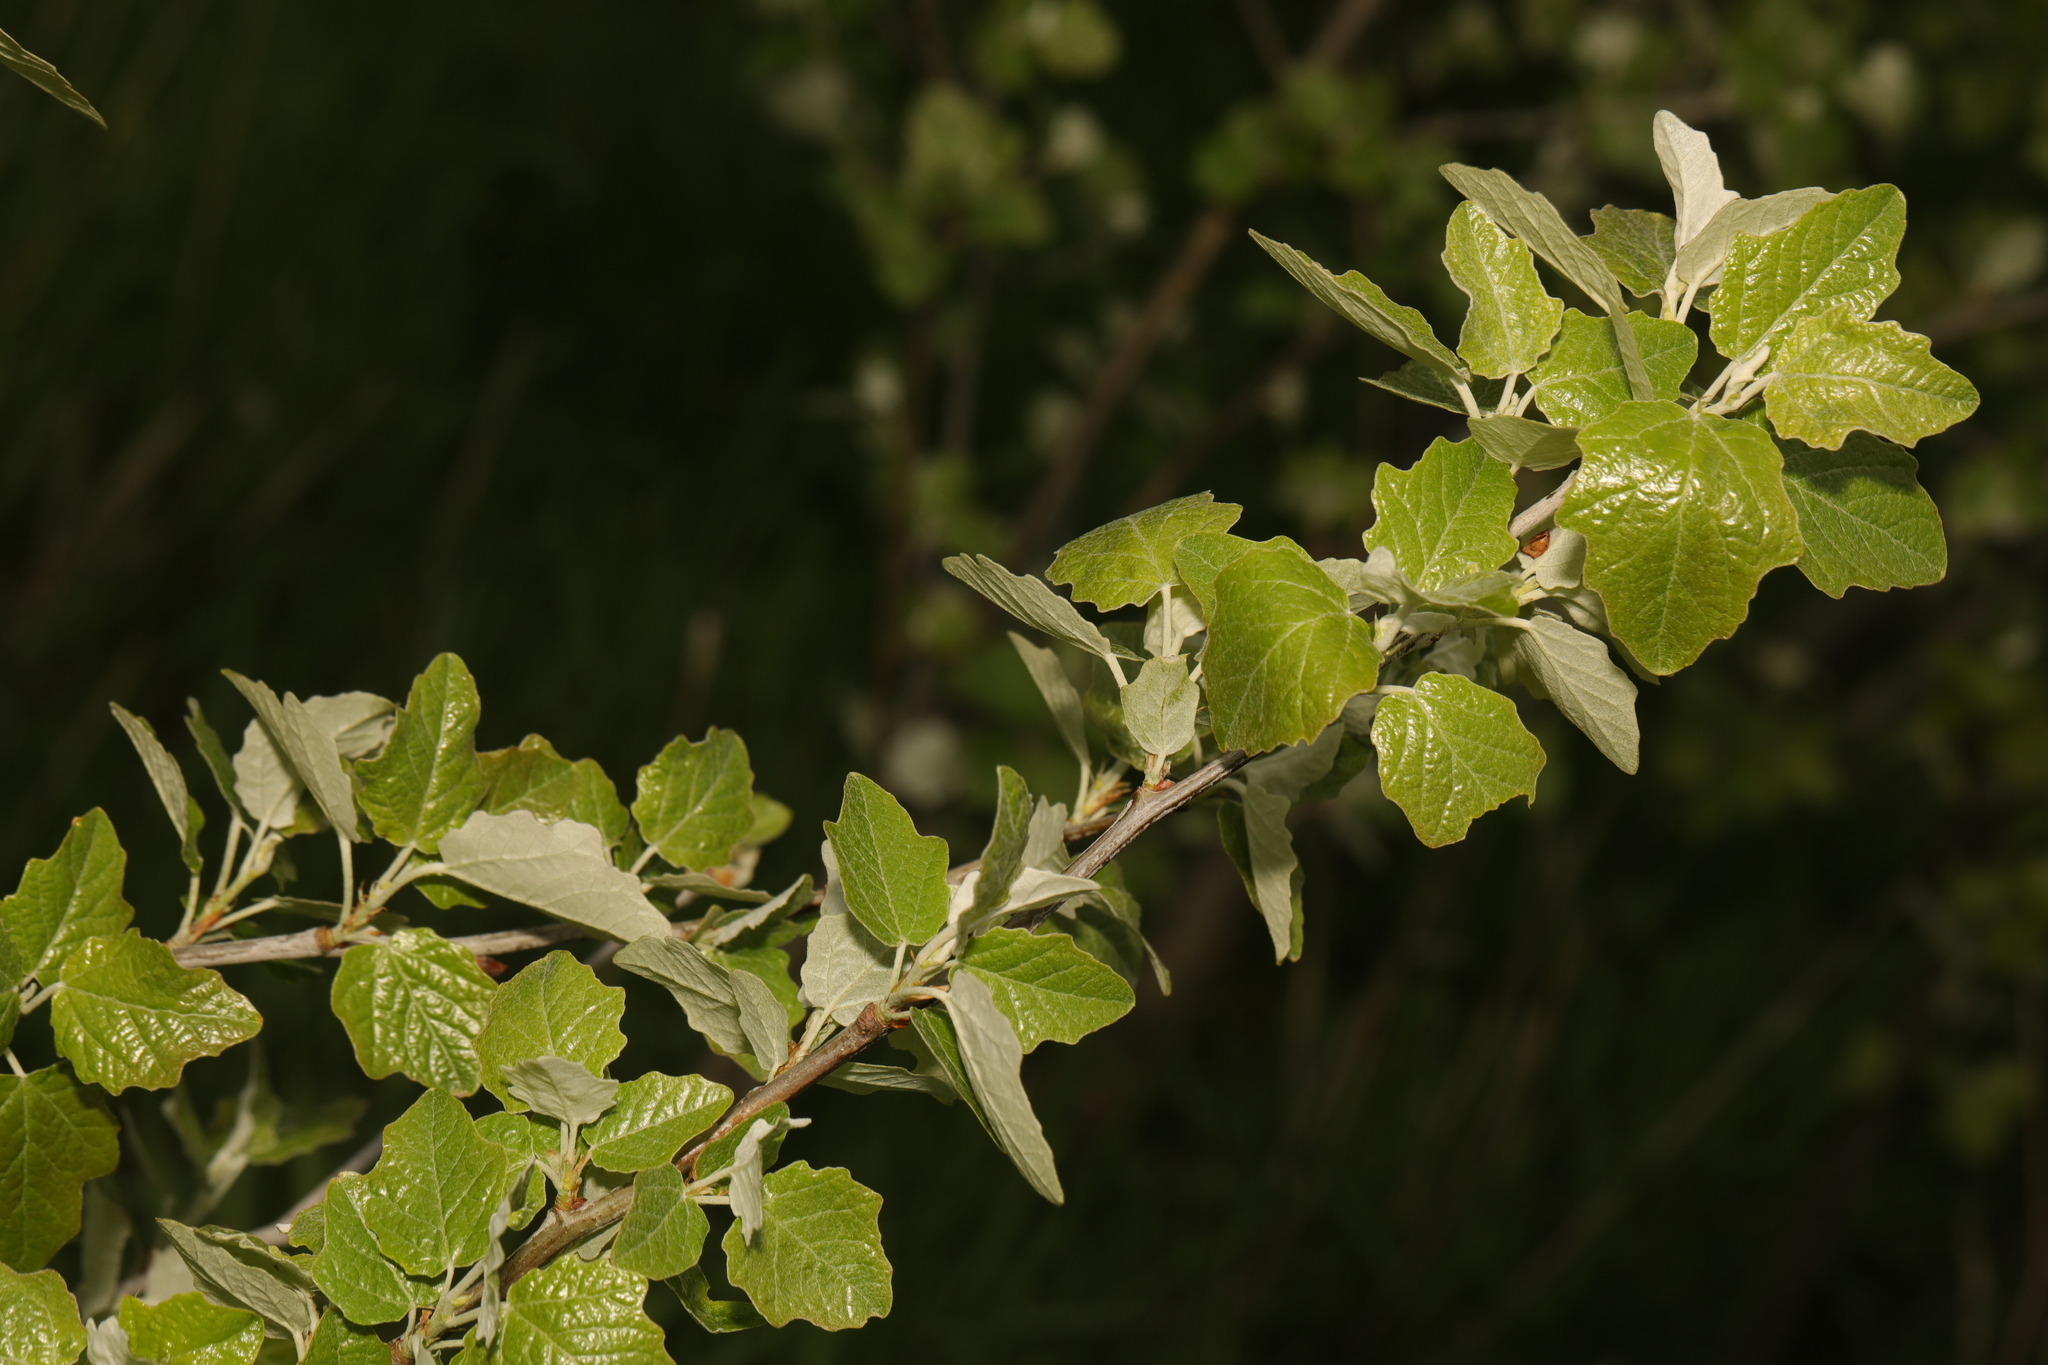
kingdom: Plantae
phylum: Tracheophyta
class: Magnoliopsida
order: Malpighiales
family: Salicaceae
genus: Populus
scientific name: Populus alba
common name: White poplar
